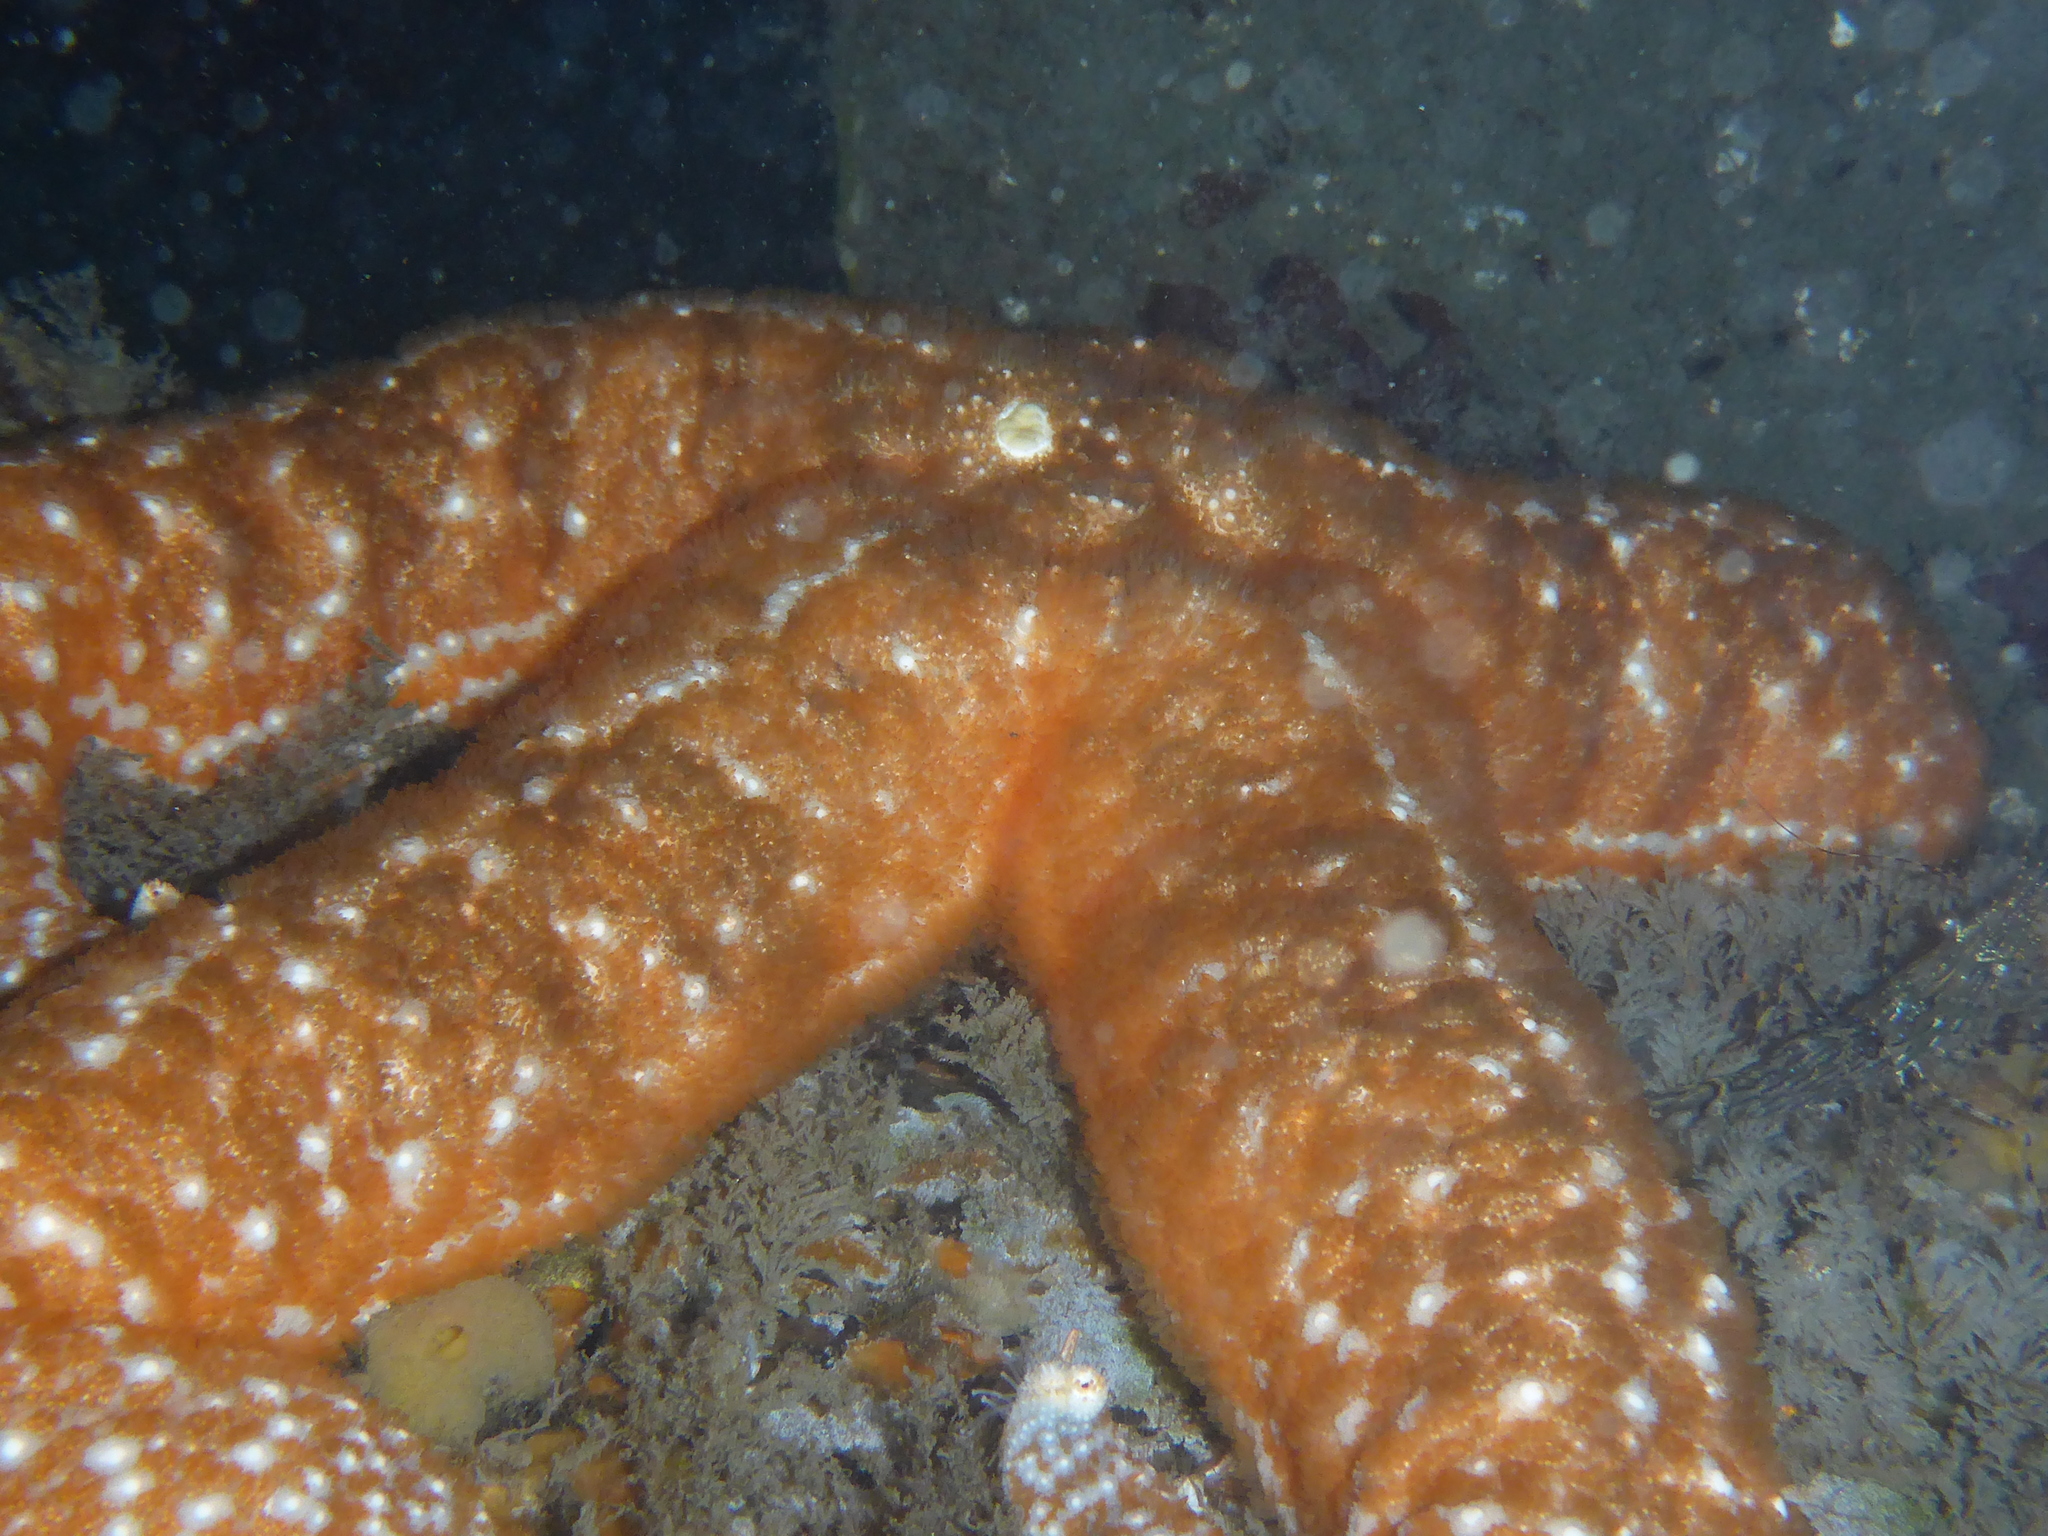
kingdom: Animalia
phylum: Echinodermata
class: Asteroidea
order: Forcipulatida
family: Asteriidae
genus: Pisaster
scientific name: Pisaster ochraceus
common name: Ochre stars
